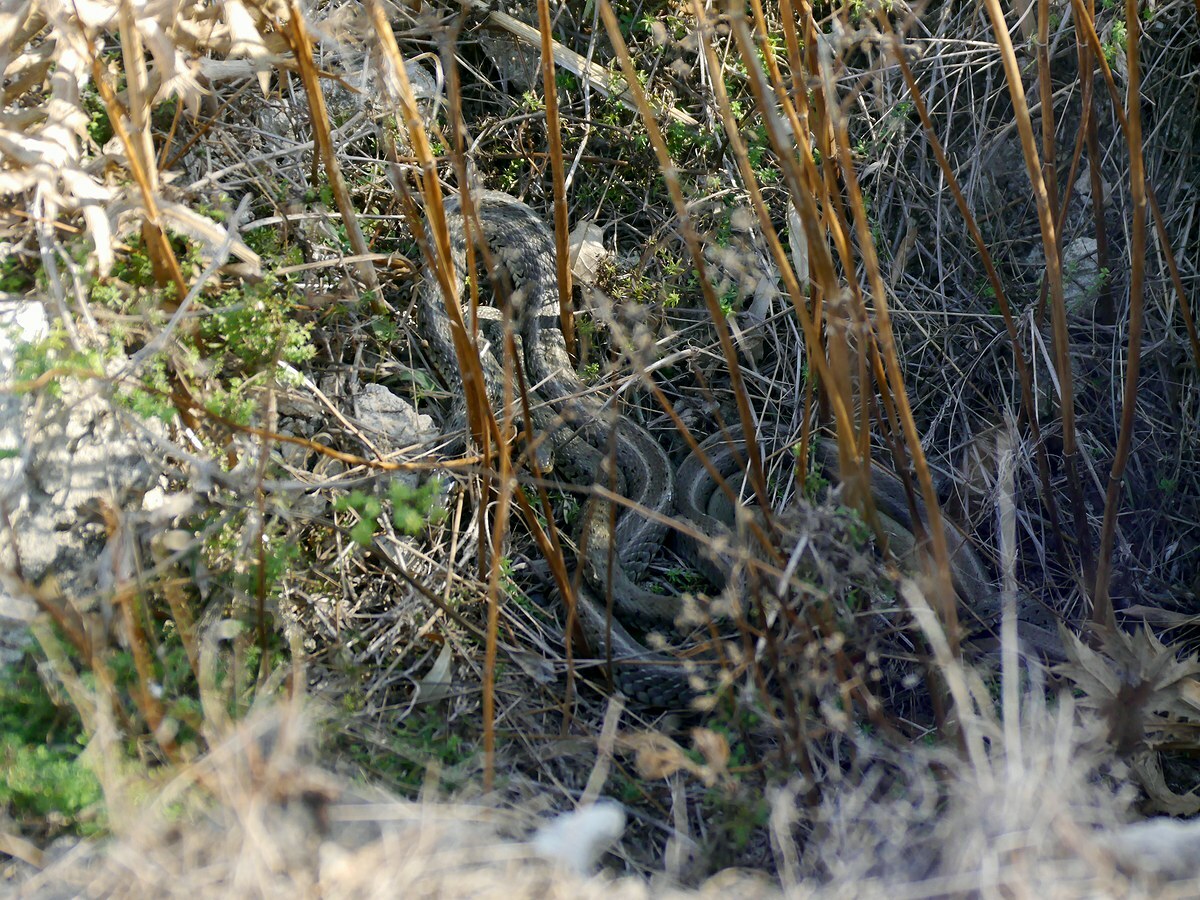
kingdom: Animalia
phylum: Chordata
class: Squamata
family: Colubridae
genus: Natrix
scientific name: Natrix natrix
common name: Grass snake
